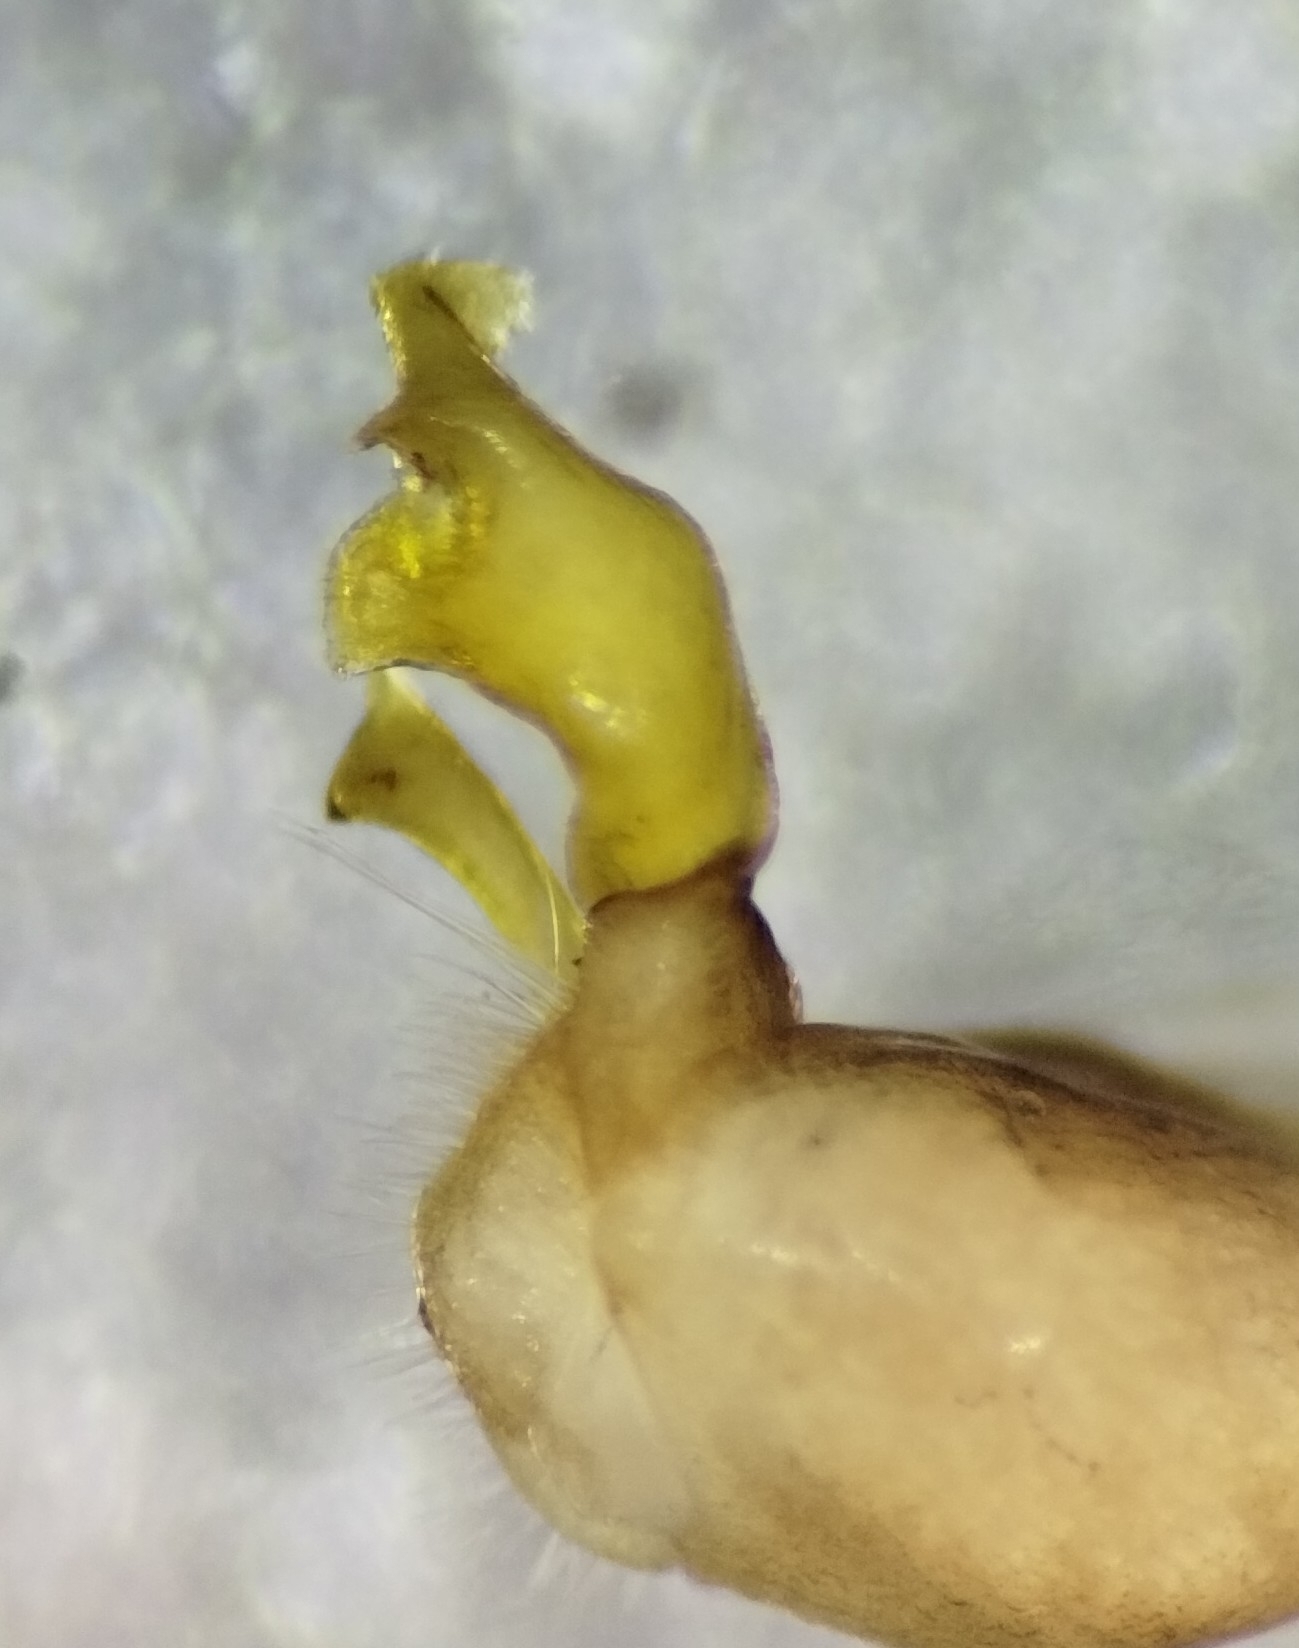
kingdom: Animalia
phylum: Arthropoda
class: Diplopoda
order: Polydesmida
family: Xystodesmidae
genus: Caralinda
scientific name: Caralinda fabalecta
